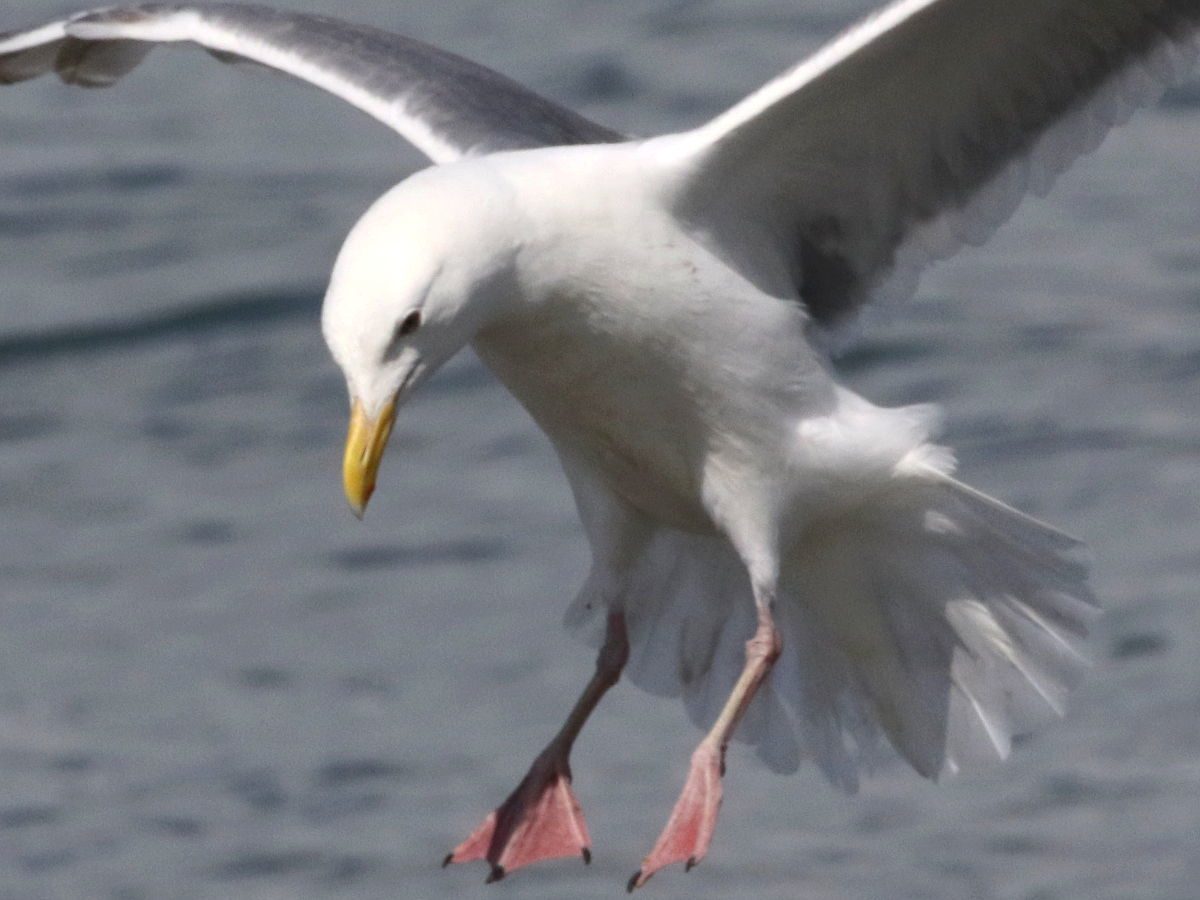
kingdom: Animalia
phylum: Chordata
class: Aves
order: Charadriiformes
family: Laridae
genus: Larus
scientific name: Larus
